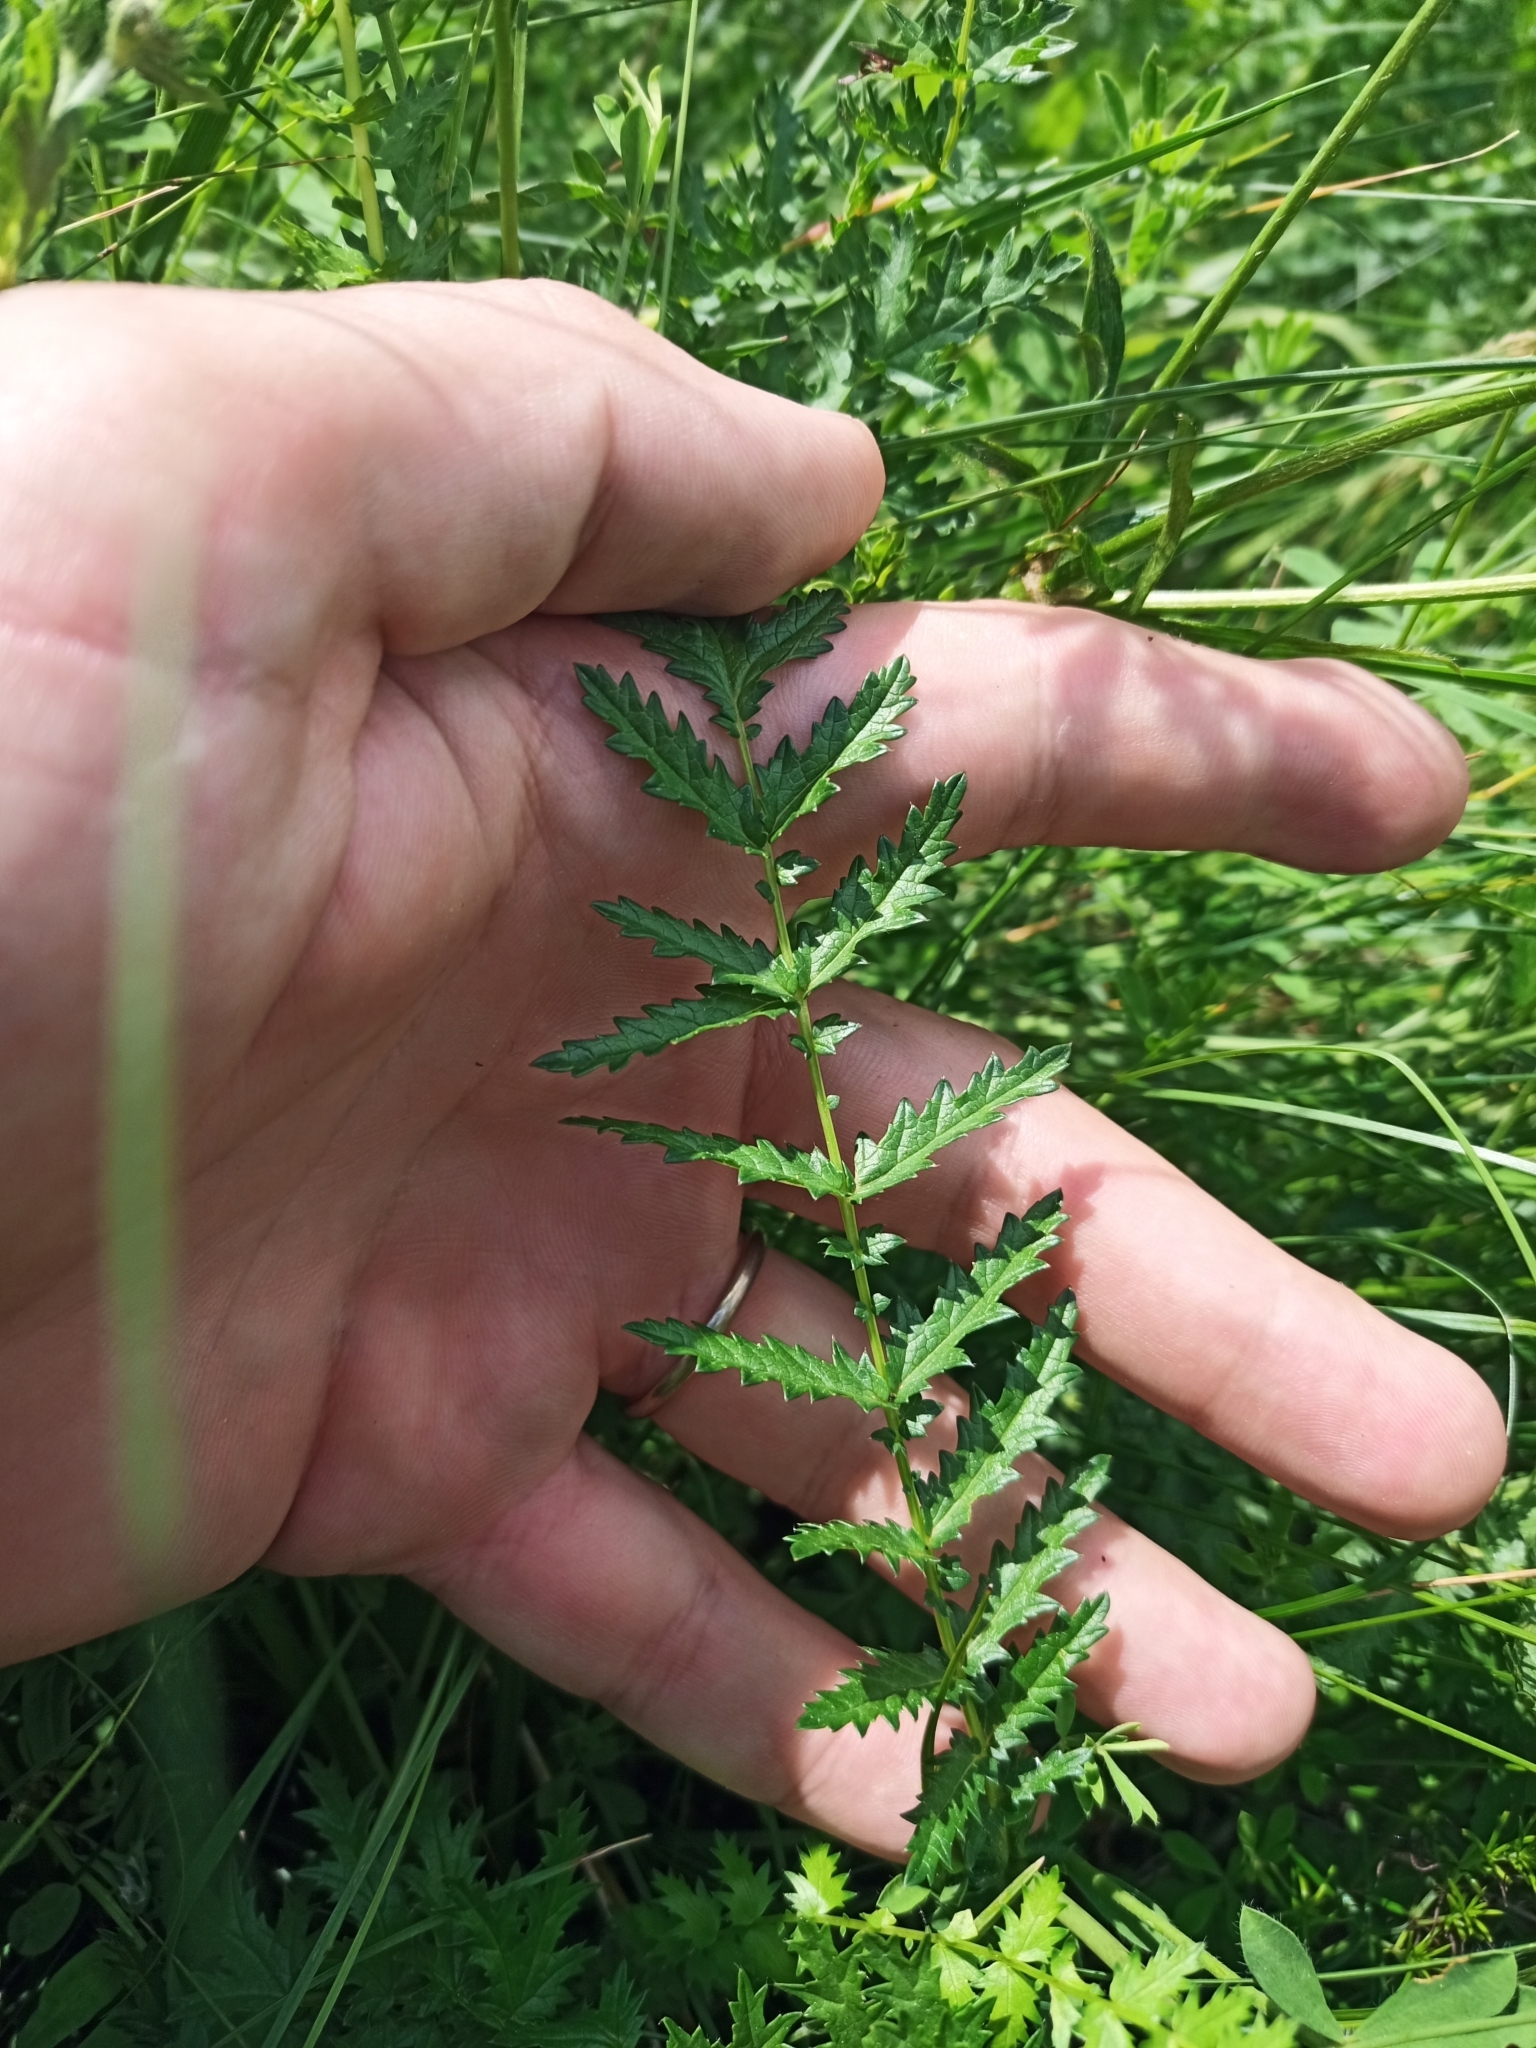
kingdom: Plantae
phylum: Tracheophyta
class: Magnoliopsida
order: Rosales
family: Rosaceae
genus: Filipendula
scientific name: Filipendula vulgaris
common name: Dropwort
